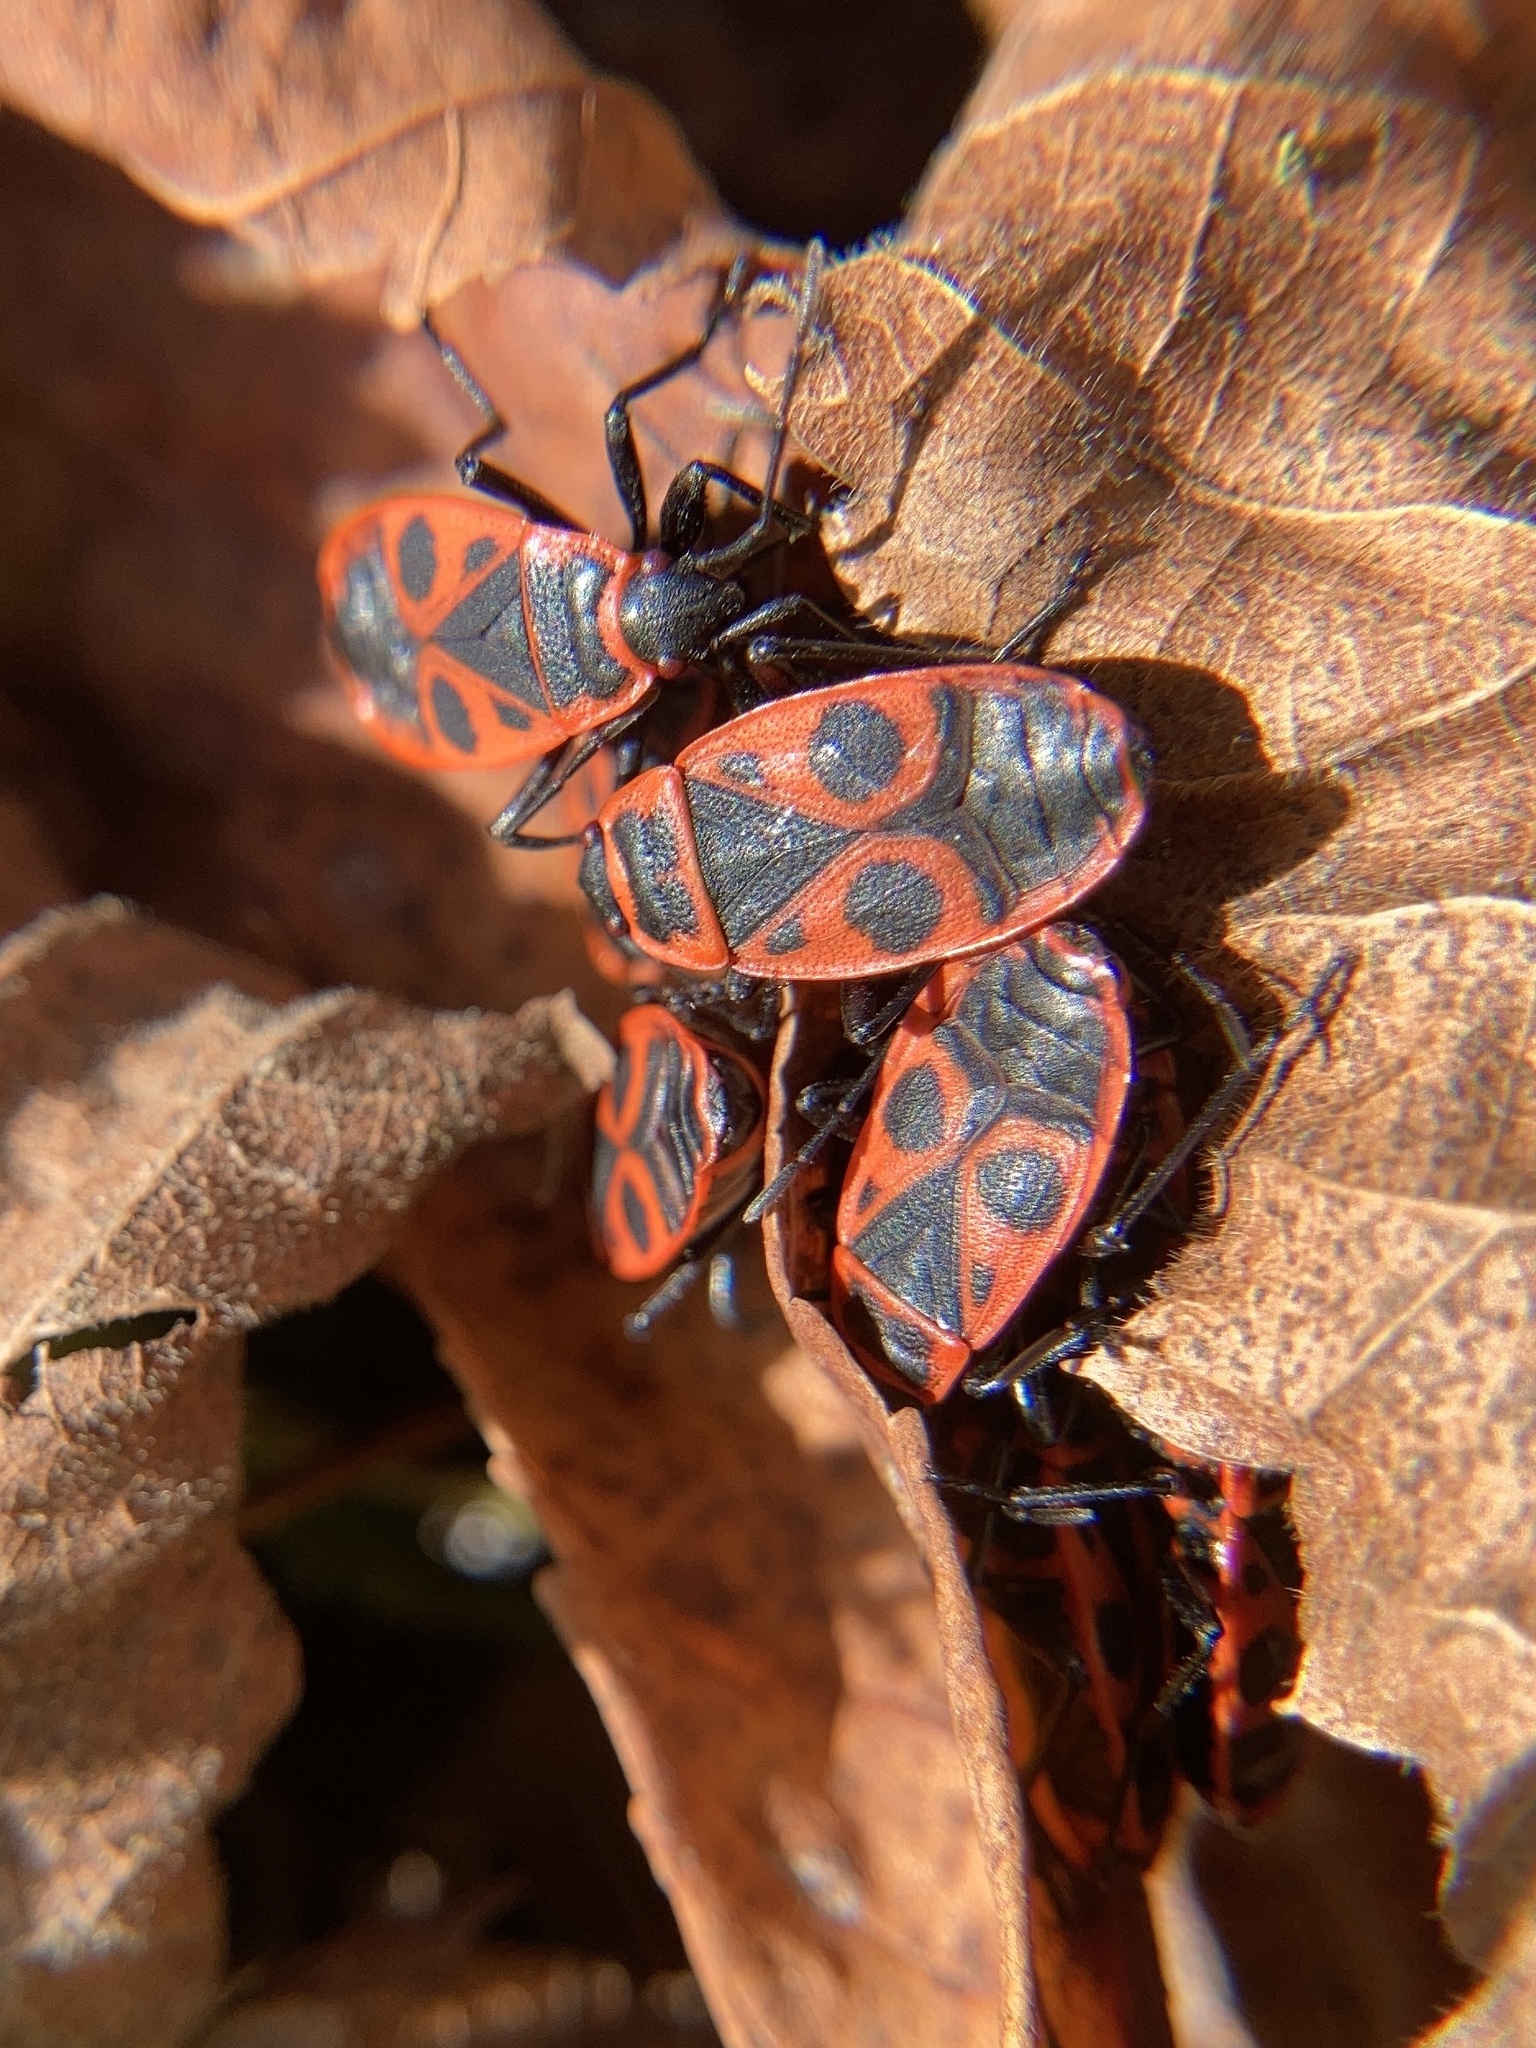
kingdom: Animalia
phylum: Arthropoda
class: Insecta
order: Hemiptera
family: Pyrrhocoridae
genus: Pyrrhocoris
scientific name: Pyrrhocoris apterus
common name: Firebug
